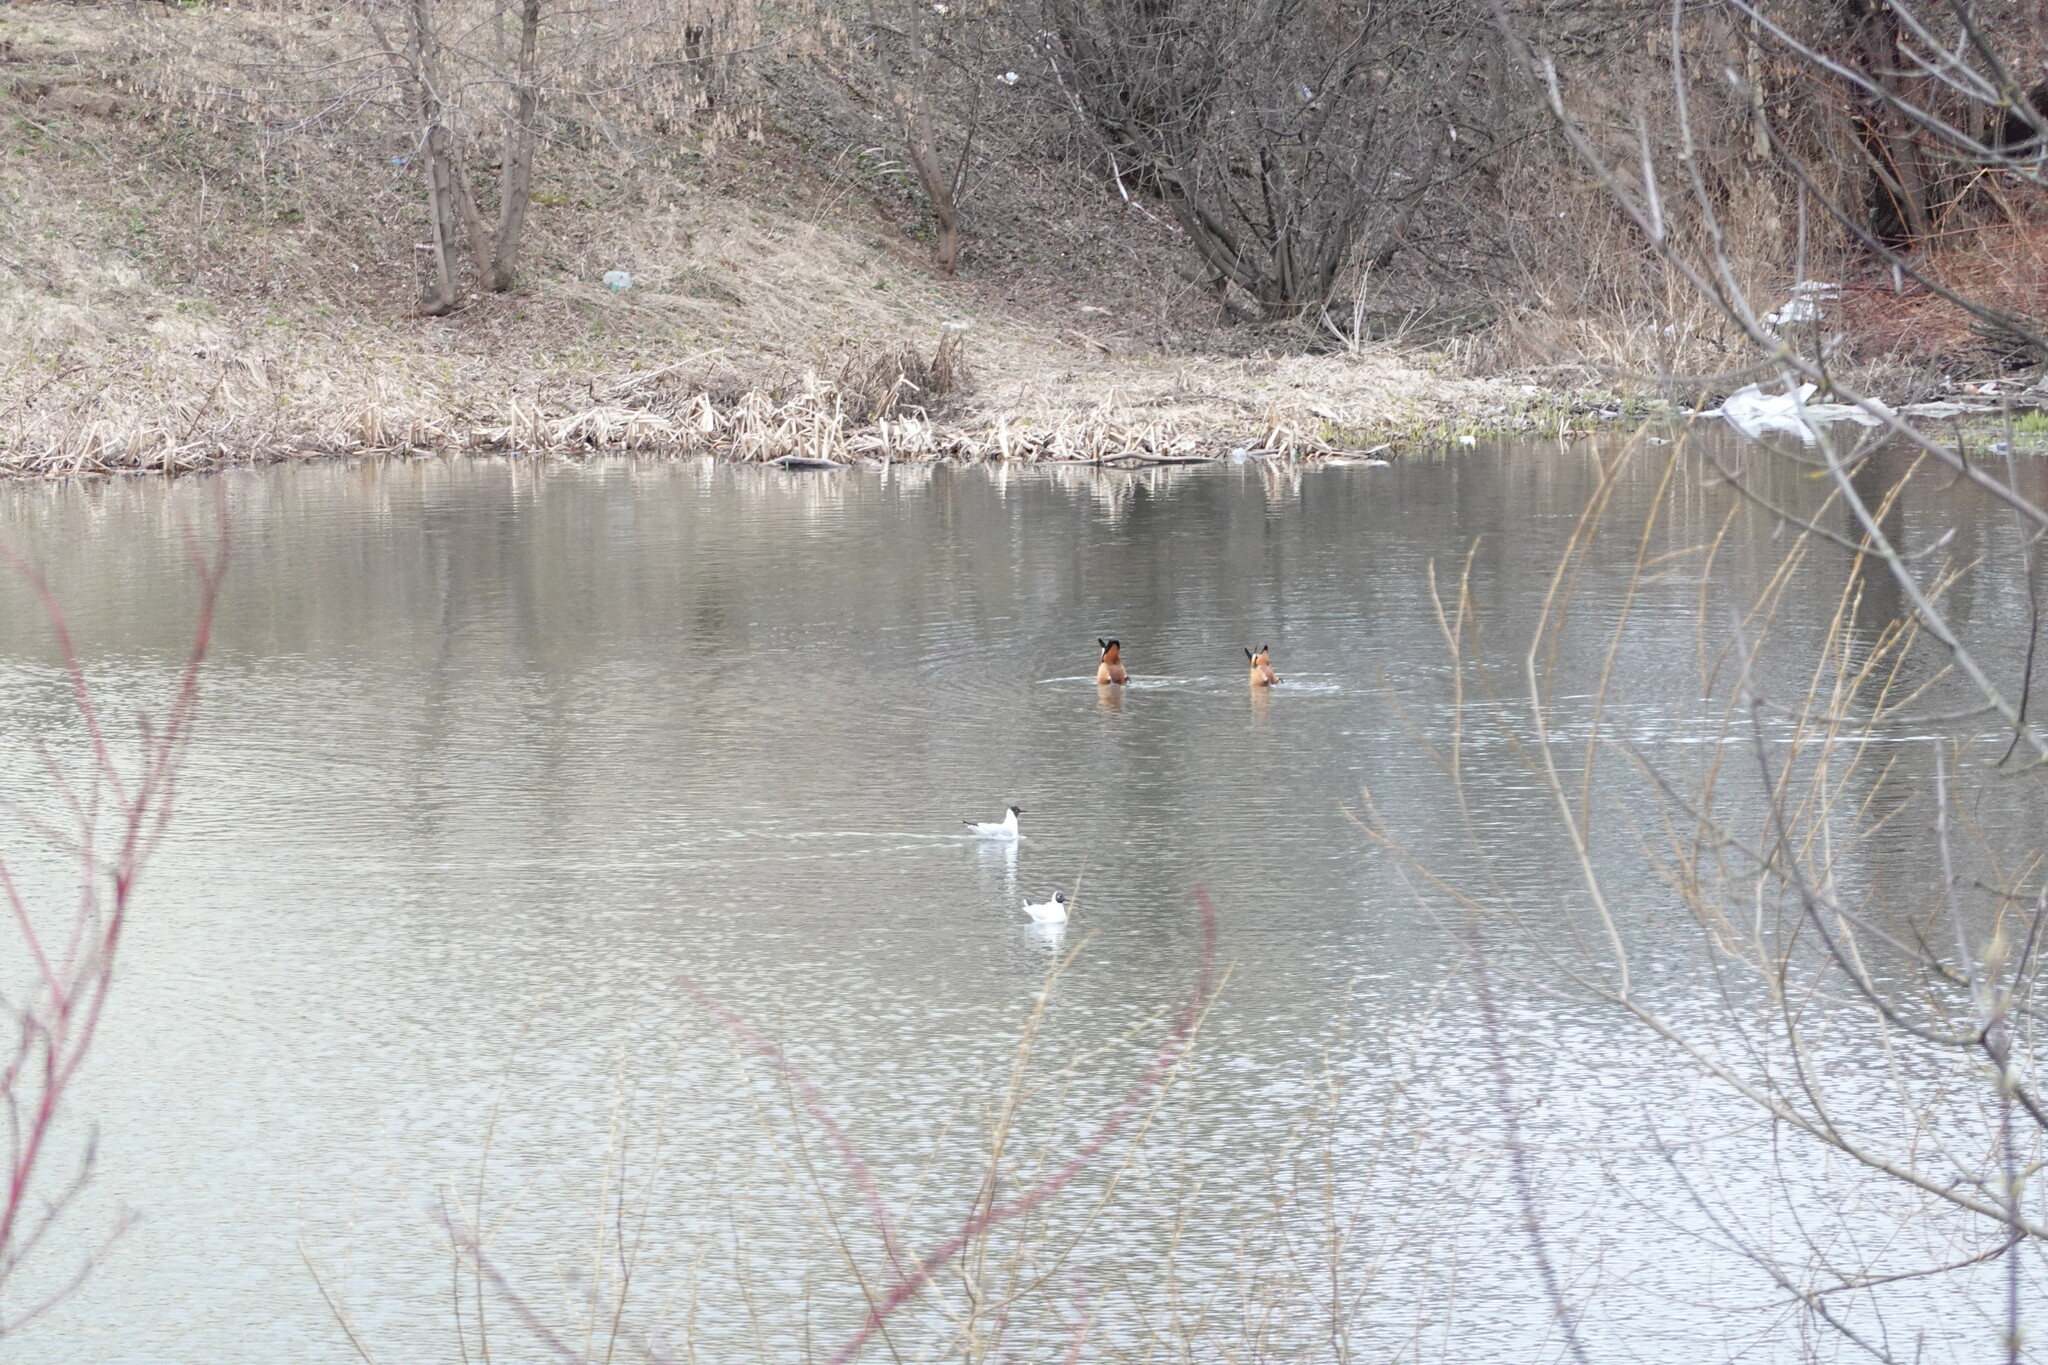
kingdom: Animalia
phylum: Chordata
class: Aves
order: Anseriformes
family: Anatidae
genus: Tadorna
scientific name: Tadorna ferruginea
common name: Ruddy shelduck
